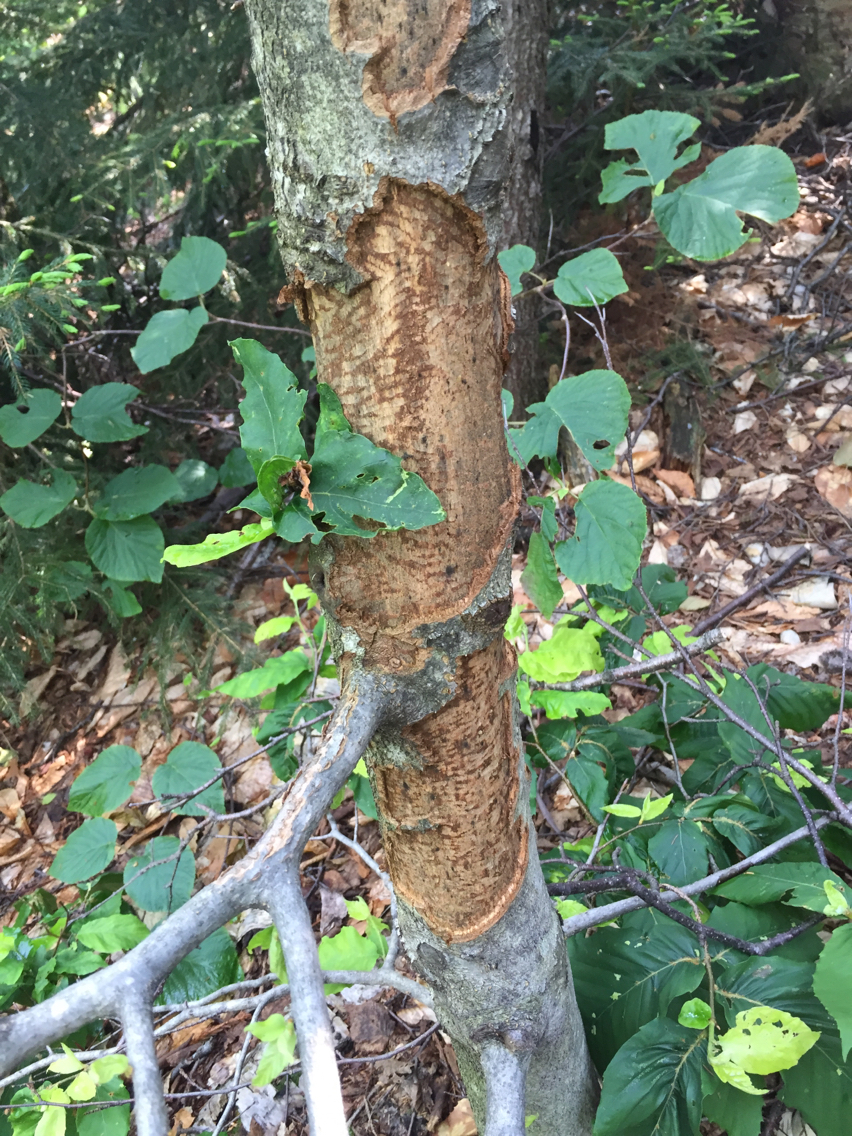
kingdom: Animalia
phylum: Chordata
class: Mammalia
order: Rodentia
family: Erethizontidae
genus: Erethizon
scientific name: Erethizon dorsatus
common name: North american porcupine
